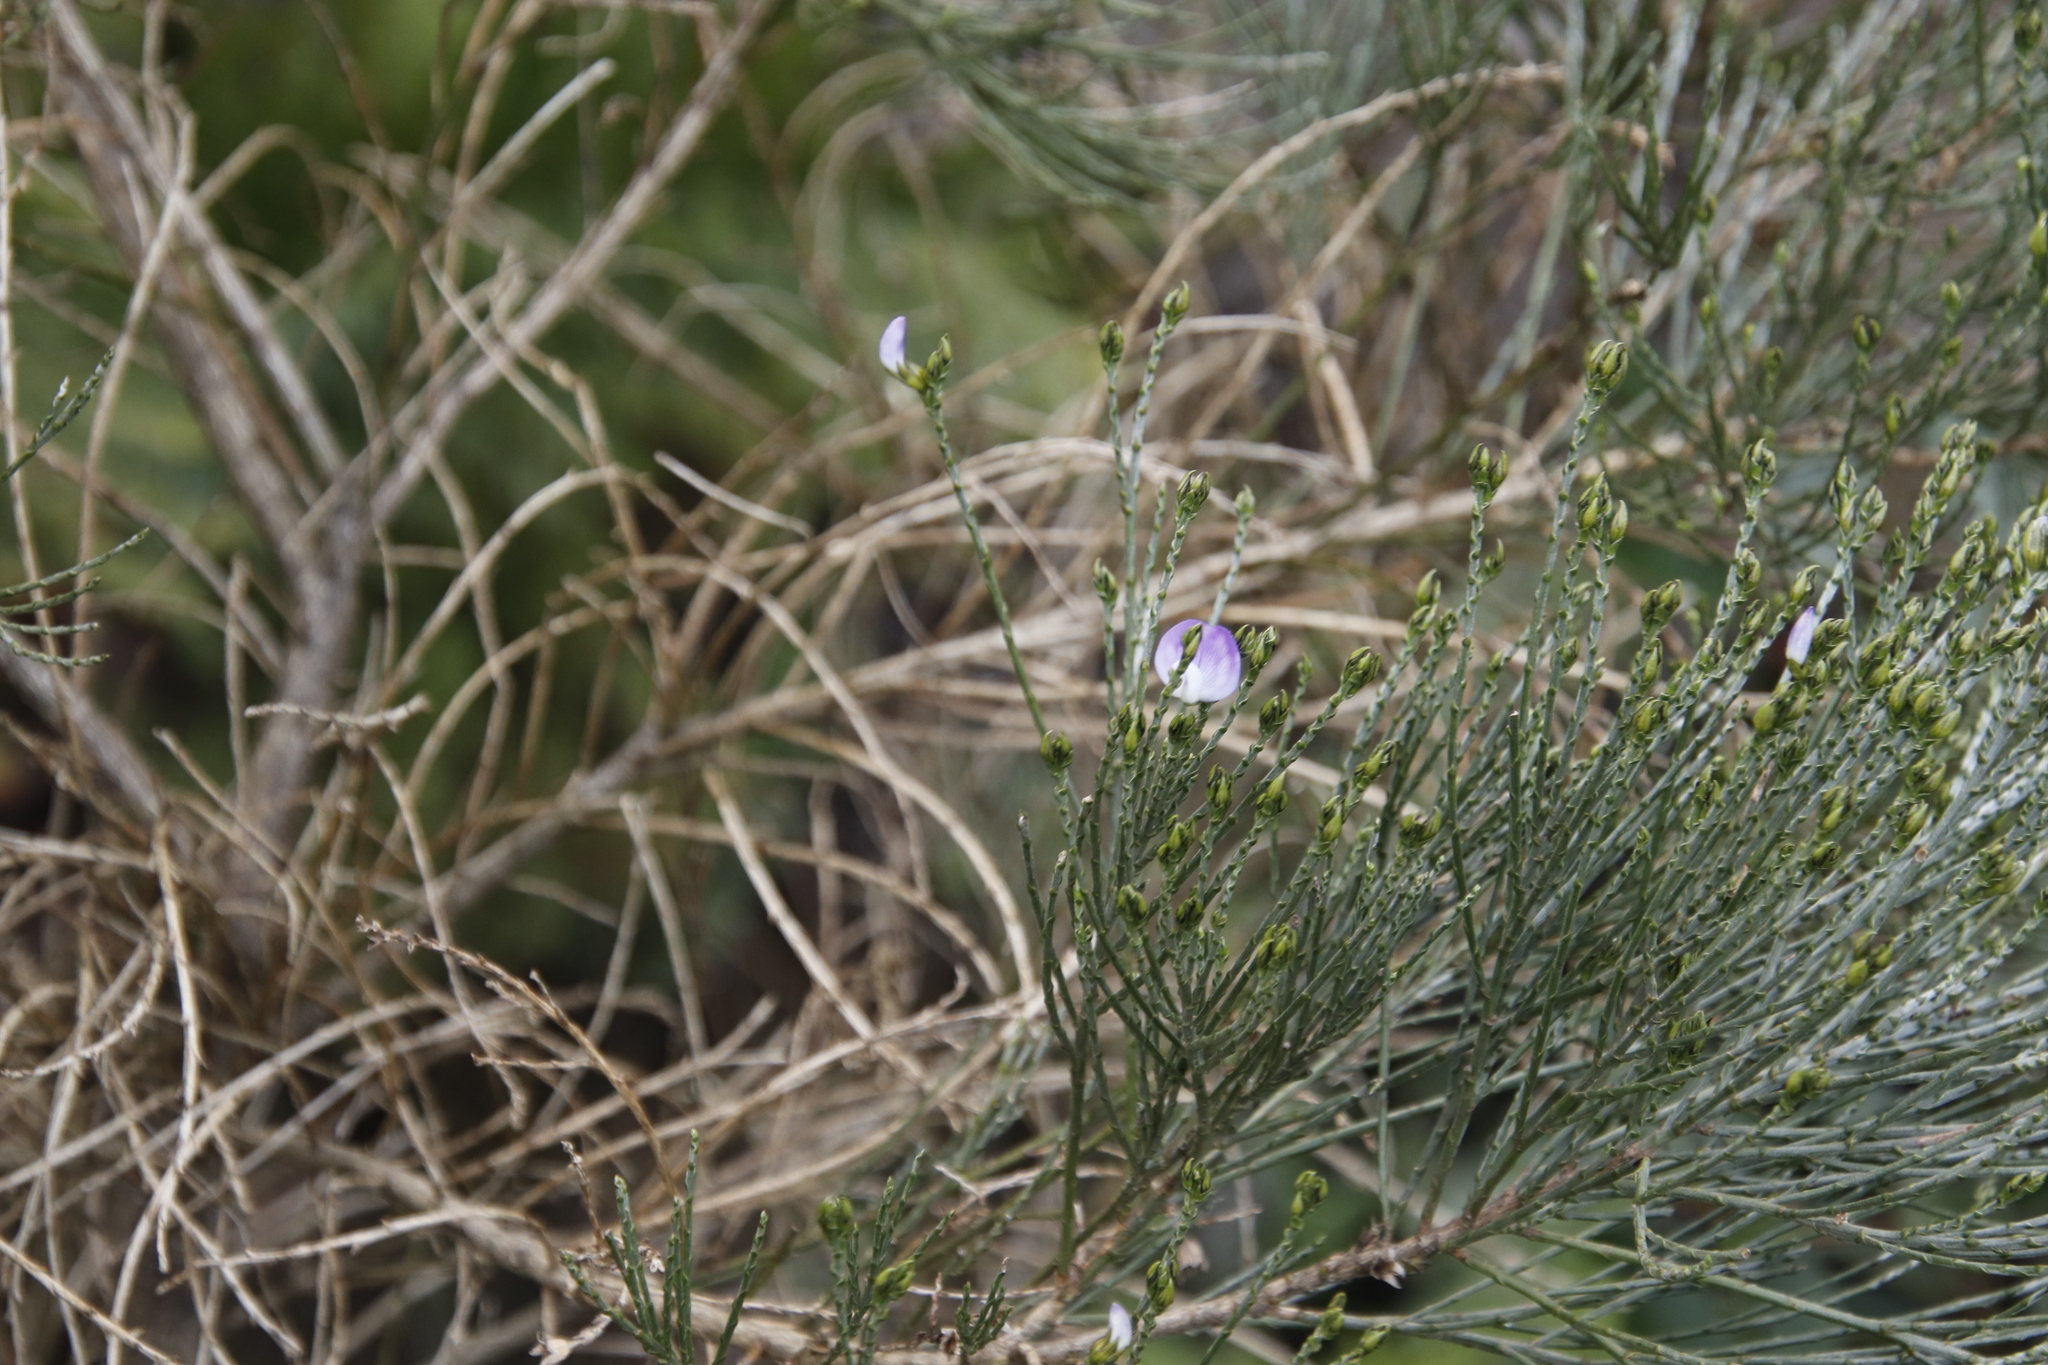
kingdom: Plantae
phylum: Tracheophyta
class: Magnoliopsida
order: Fabales
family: Fabaceae
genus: Psoralea
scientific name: Psoralea congesta
